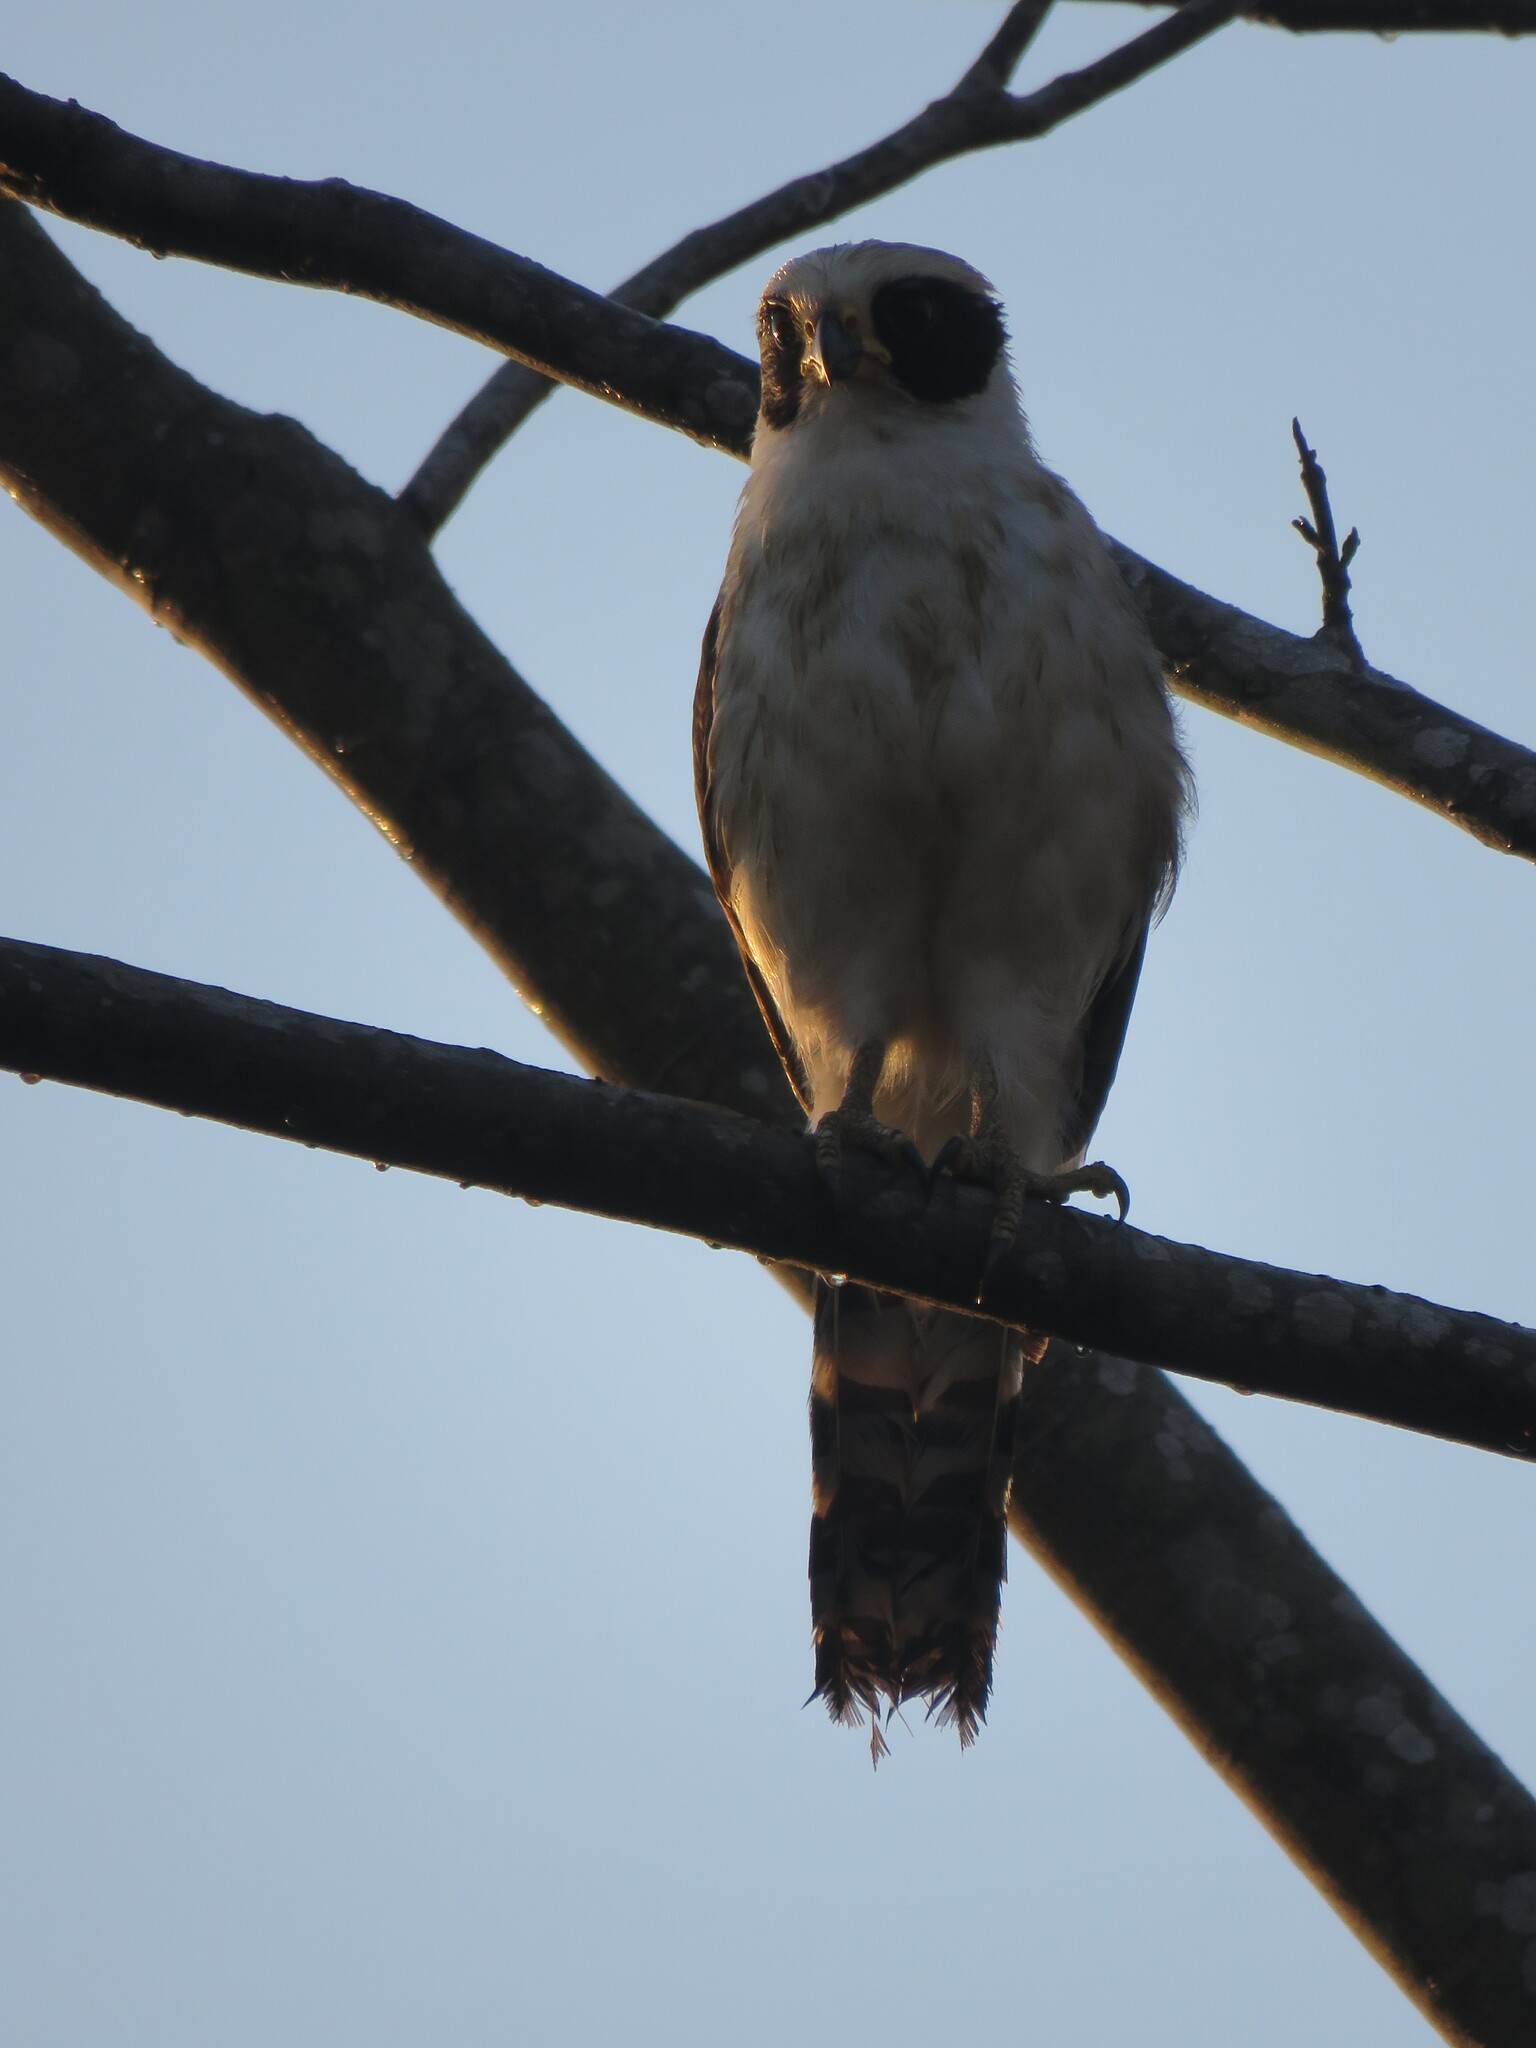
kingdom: Animalia
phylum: Chordata
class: Aves
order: Falconiformes
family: Falconidae
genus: Herpetotheres
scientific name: Herpetotheres cachinnans
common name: Laughing falcon
